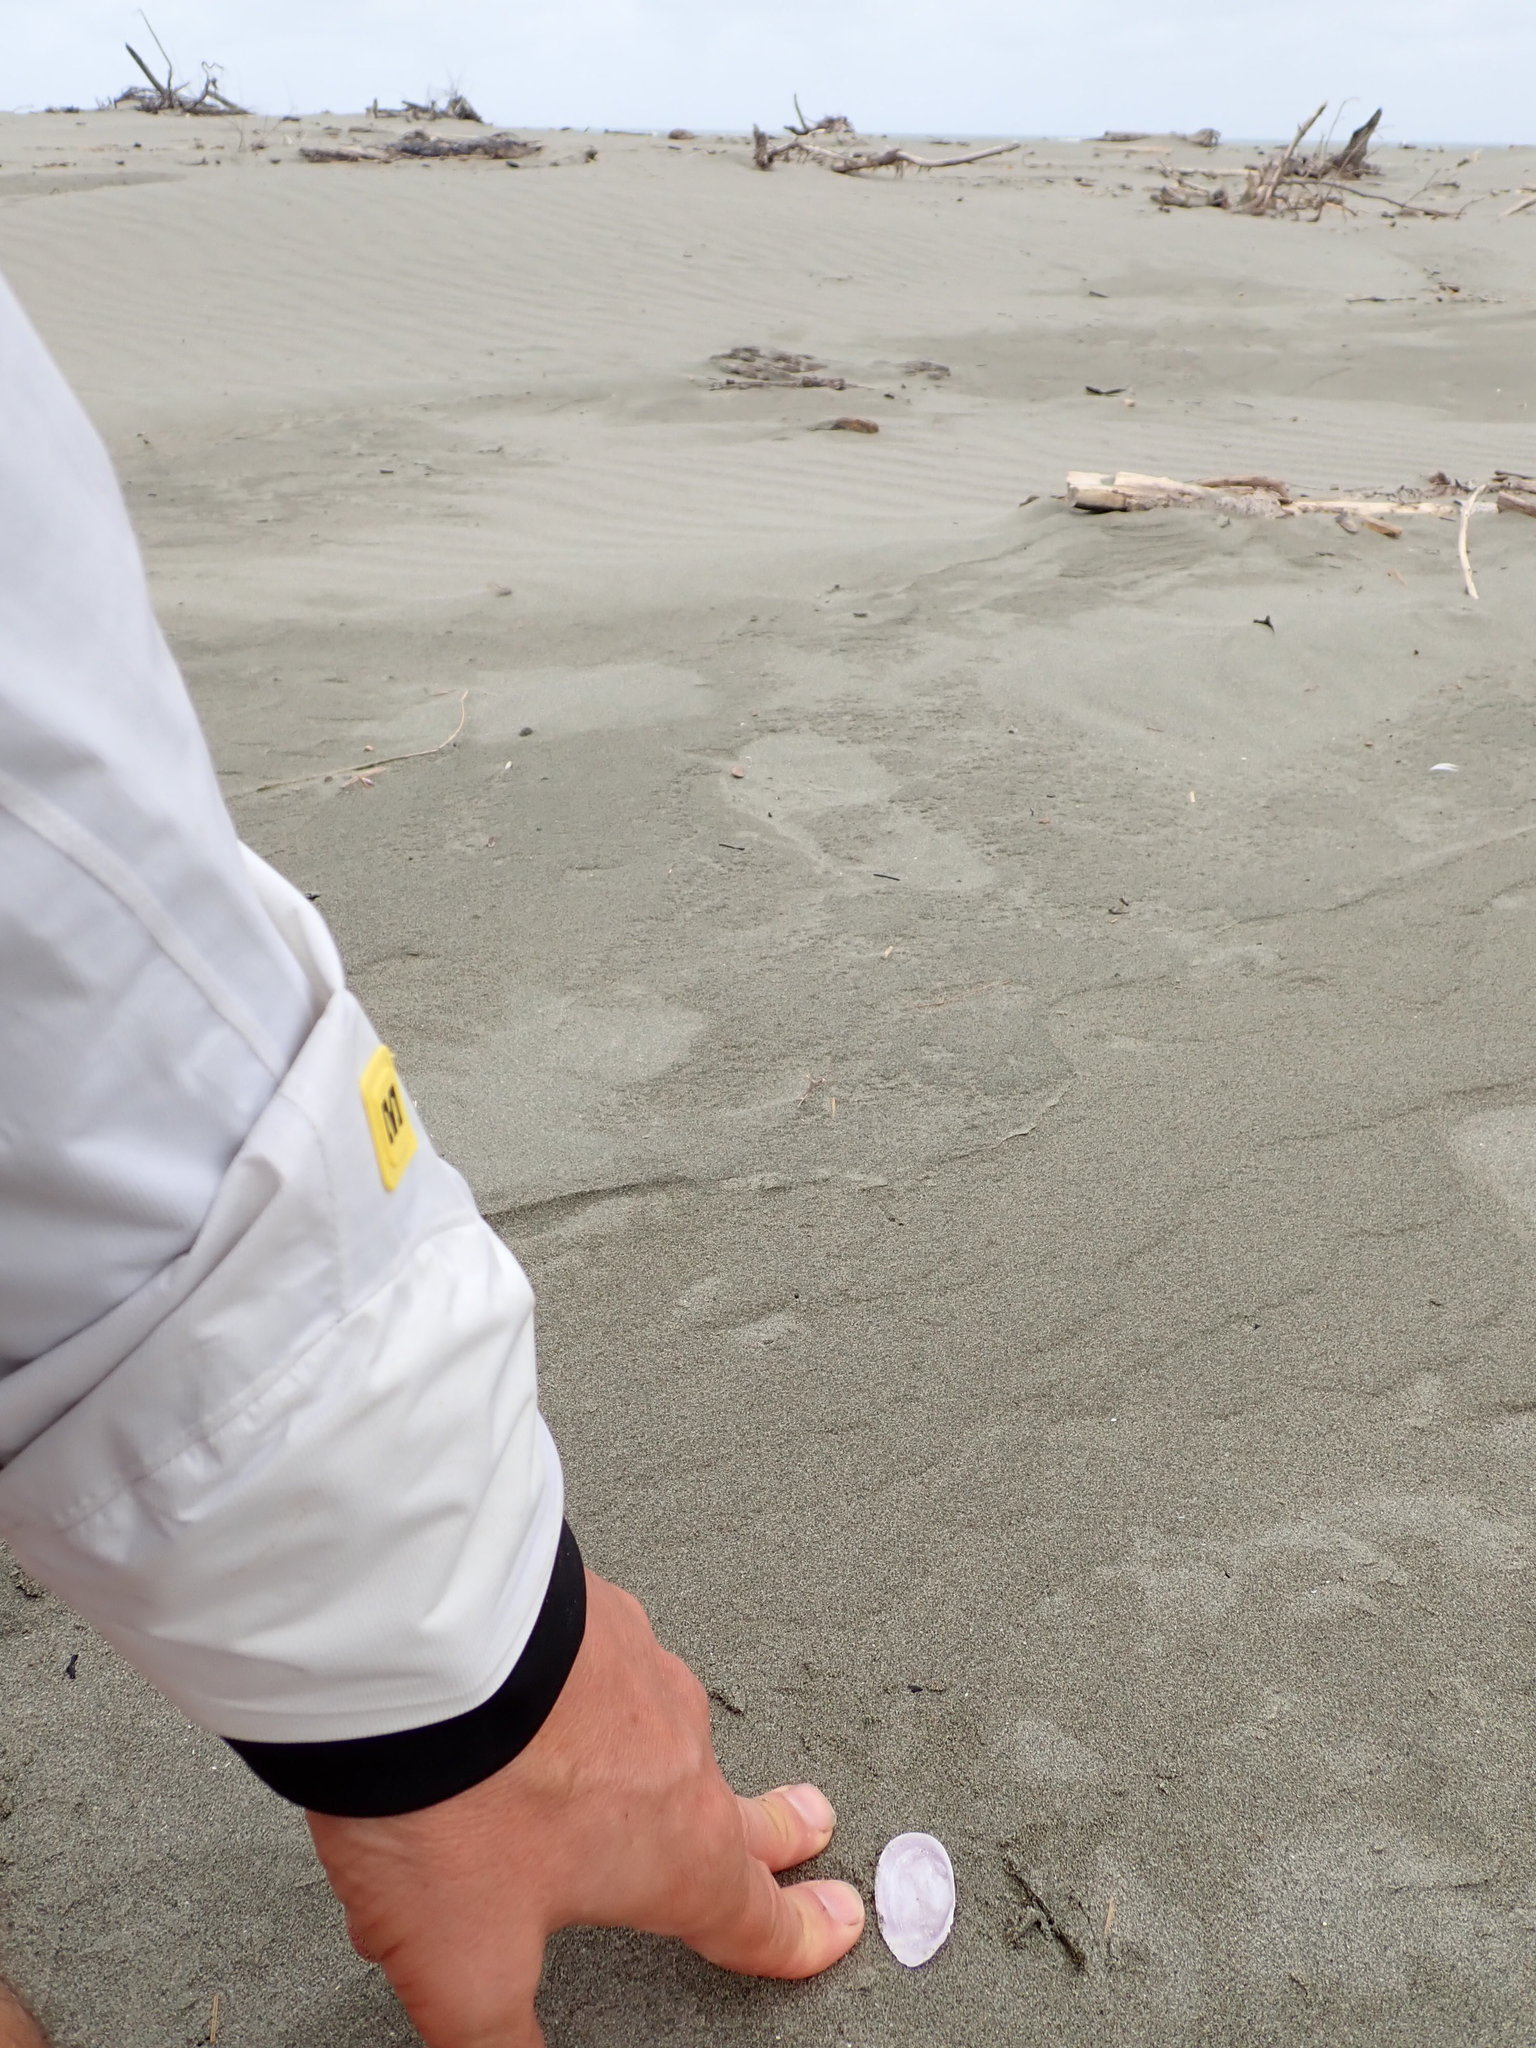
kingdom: Animalia
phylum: Mollusca
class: Bivalvia
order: Cardiida
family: Psammobiidae
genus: Hiatula
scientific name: Hiatula nitida
